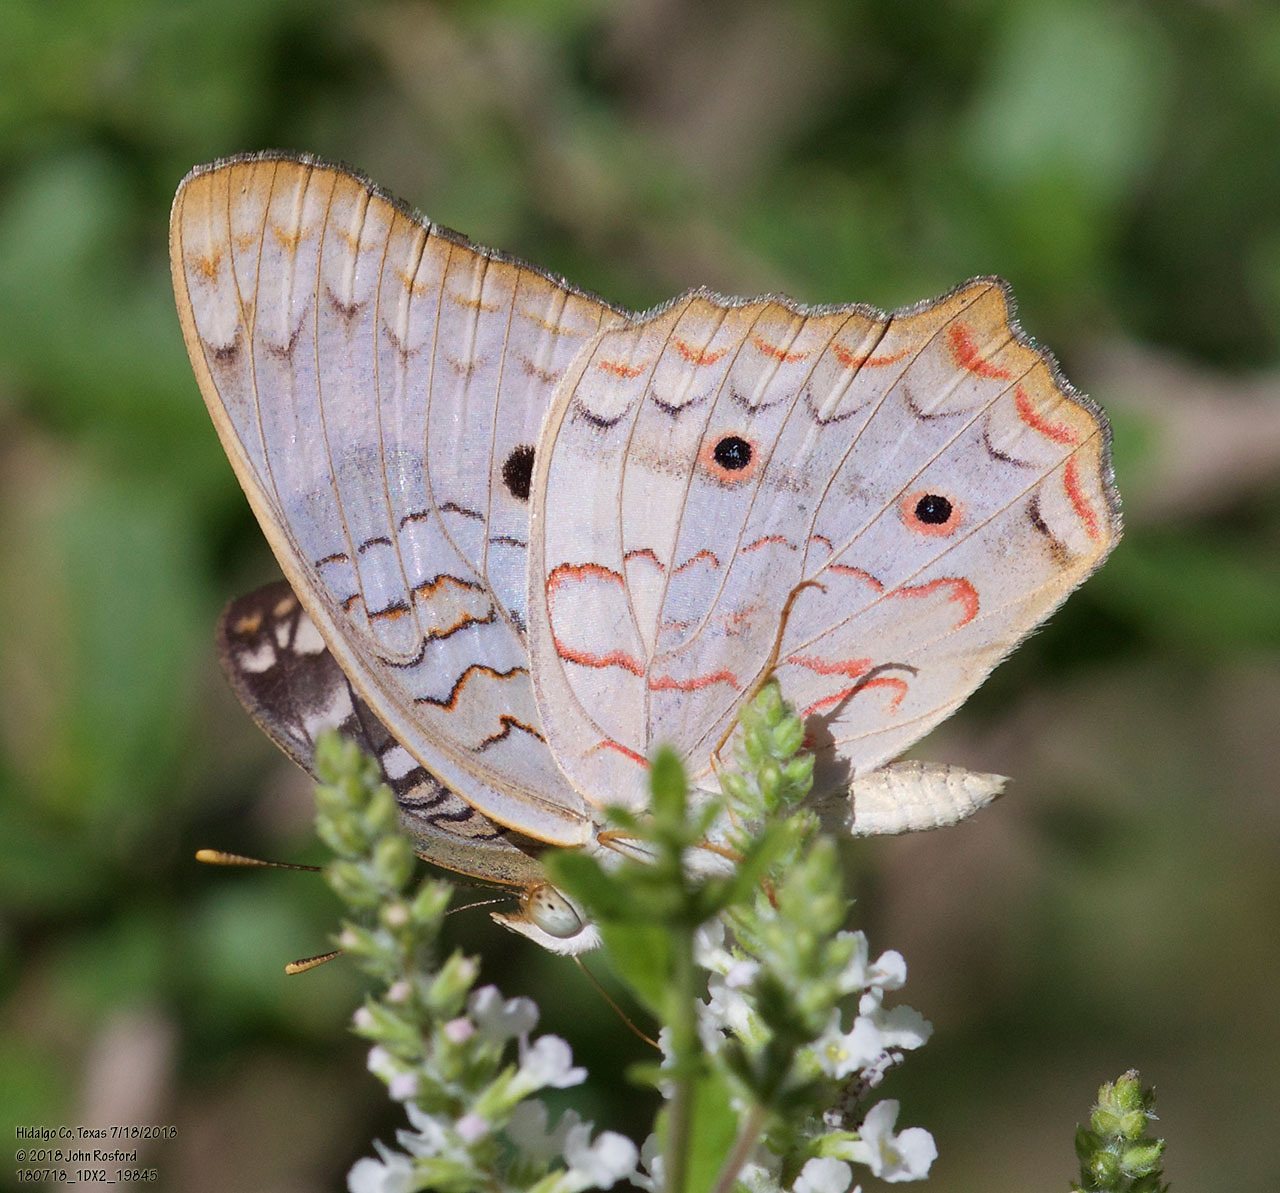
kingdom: Animalia
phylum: Arthropoda
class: Insecta
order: Lepidoptera
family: Nymphalidae
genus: Anartia
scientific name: Anartia jatrophae
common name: White peacock
